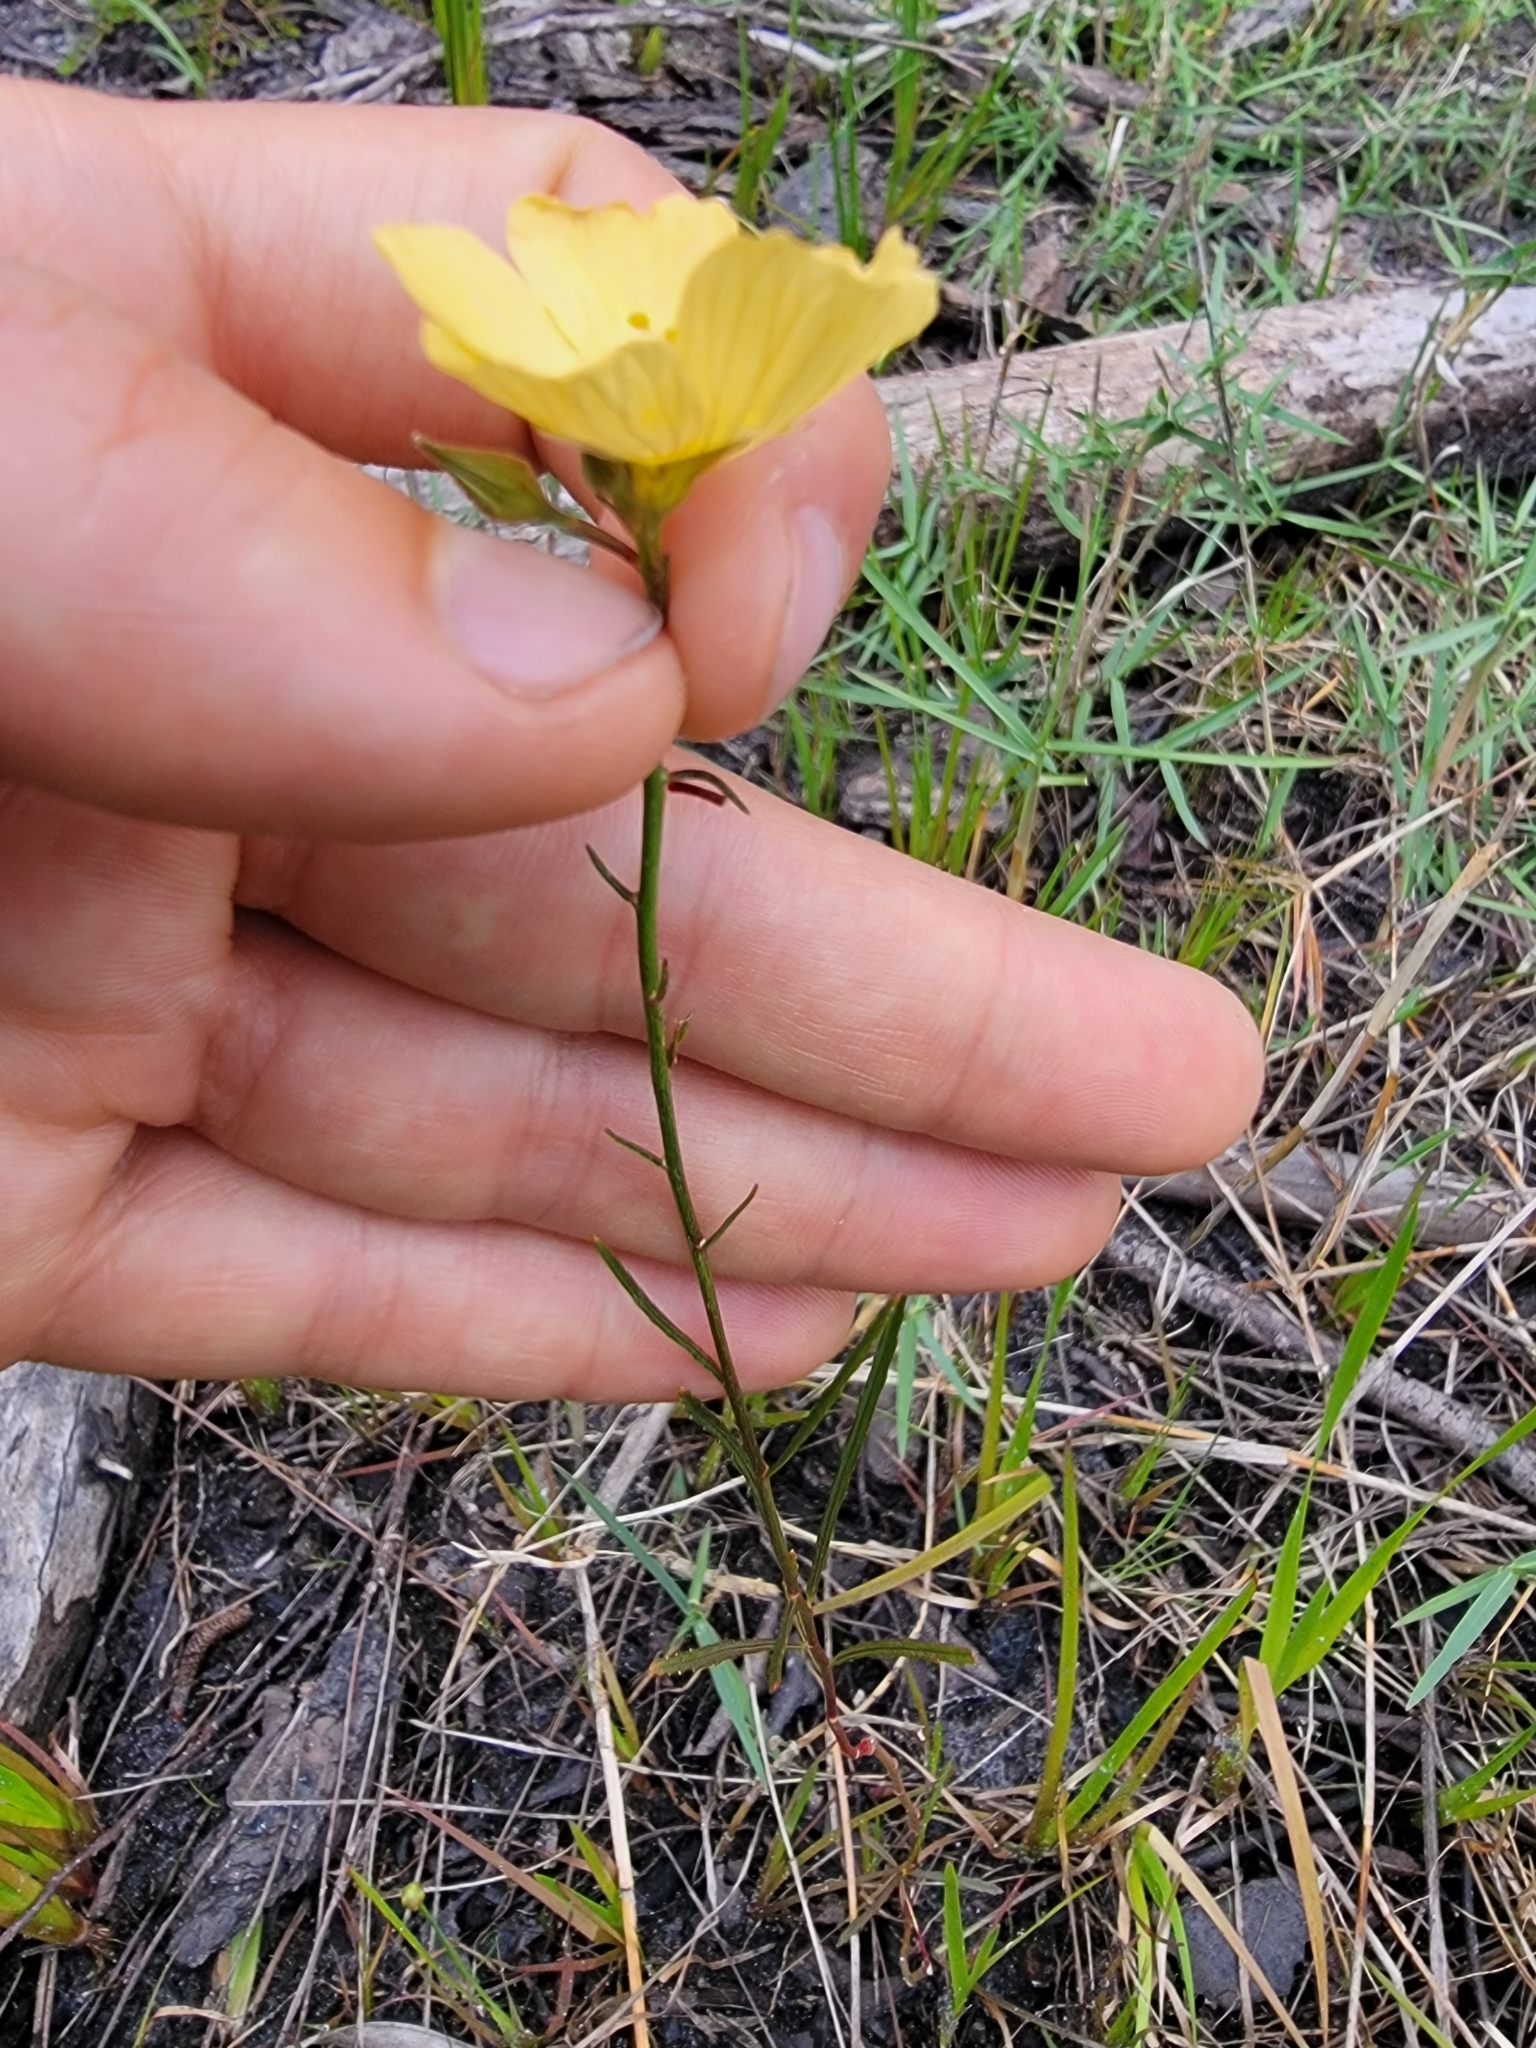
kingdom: Plantae
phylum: Tracheophyta
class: Magnoliopsida
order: Malpighiales
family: Turneraceae
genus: Piriqueta
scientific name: Piriqueta cistoides
